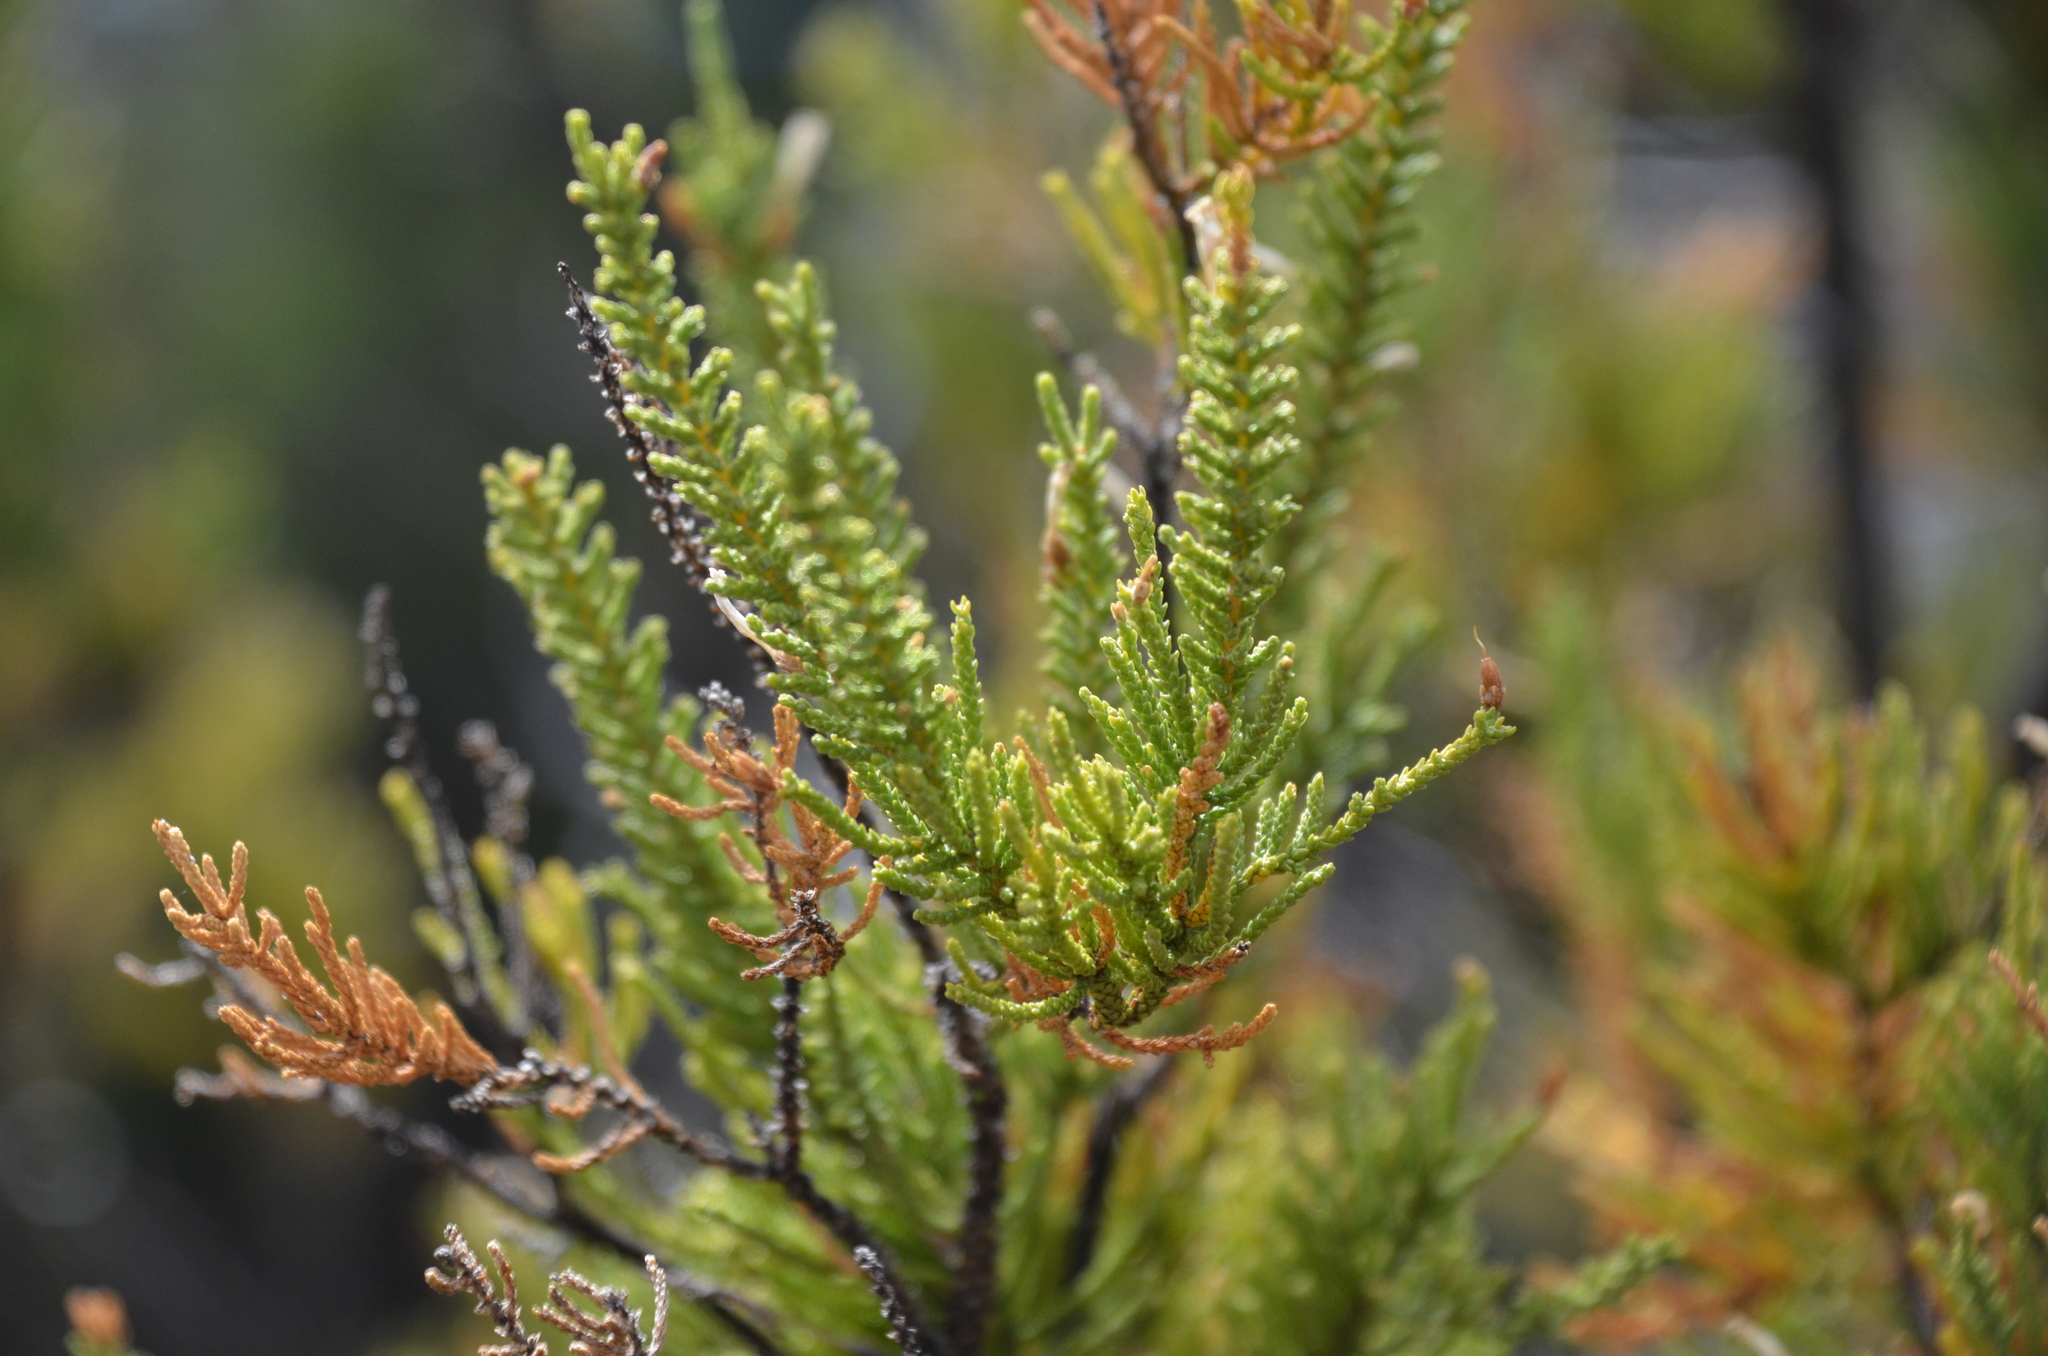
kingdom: Plantae
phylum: Tracheophyta
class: Magnoliopsida
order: Solanales
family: Solanaceae
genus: Fabiana
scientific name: Fabiana imbricata
